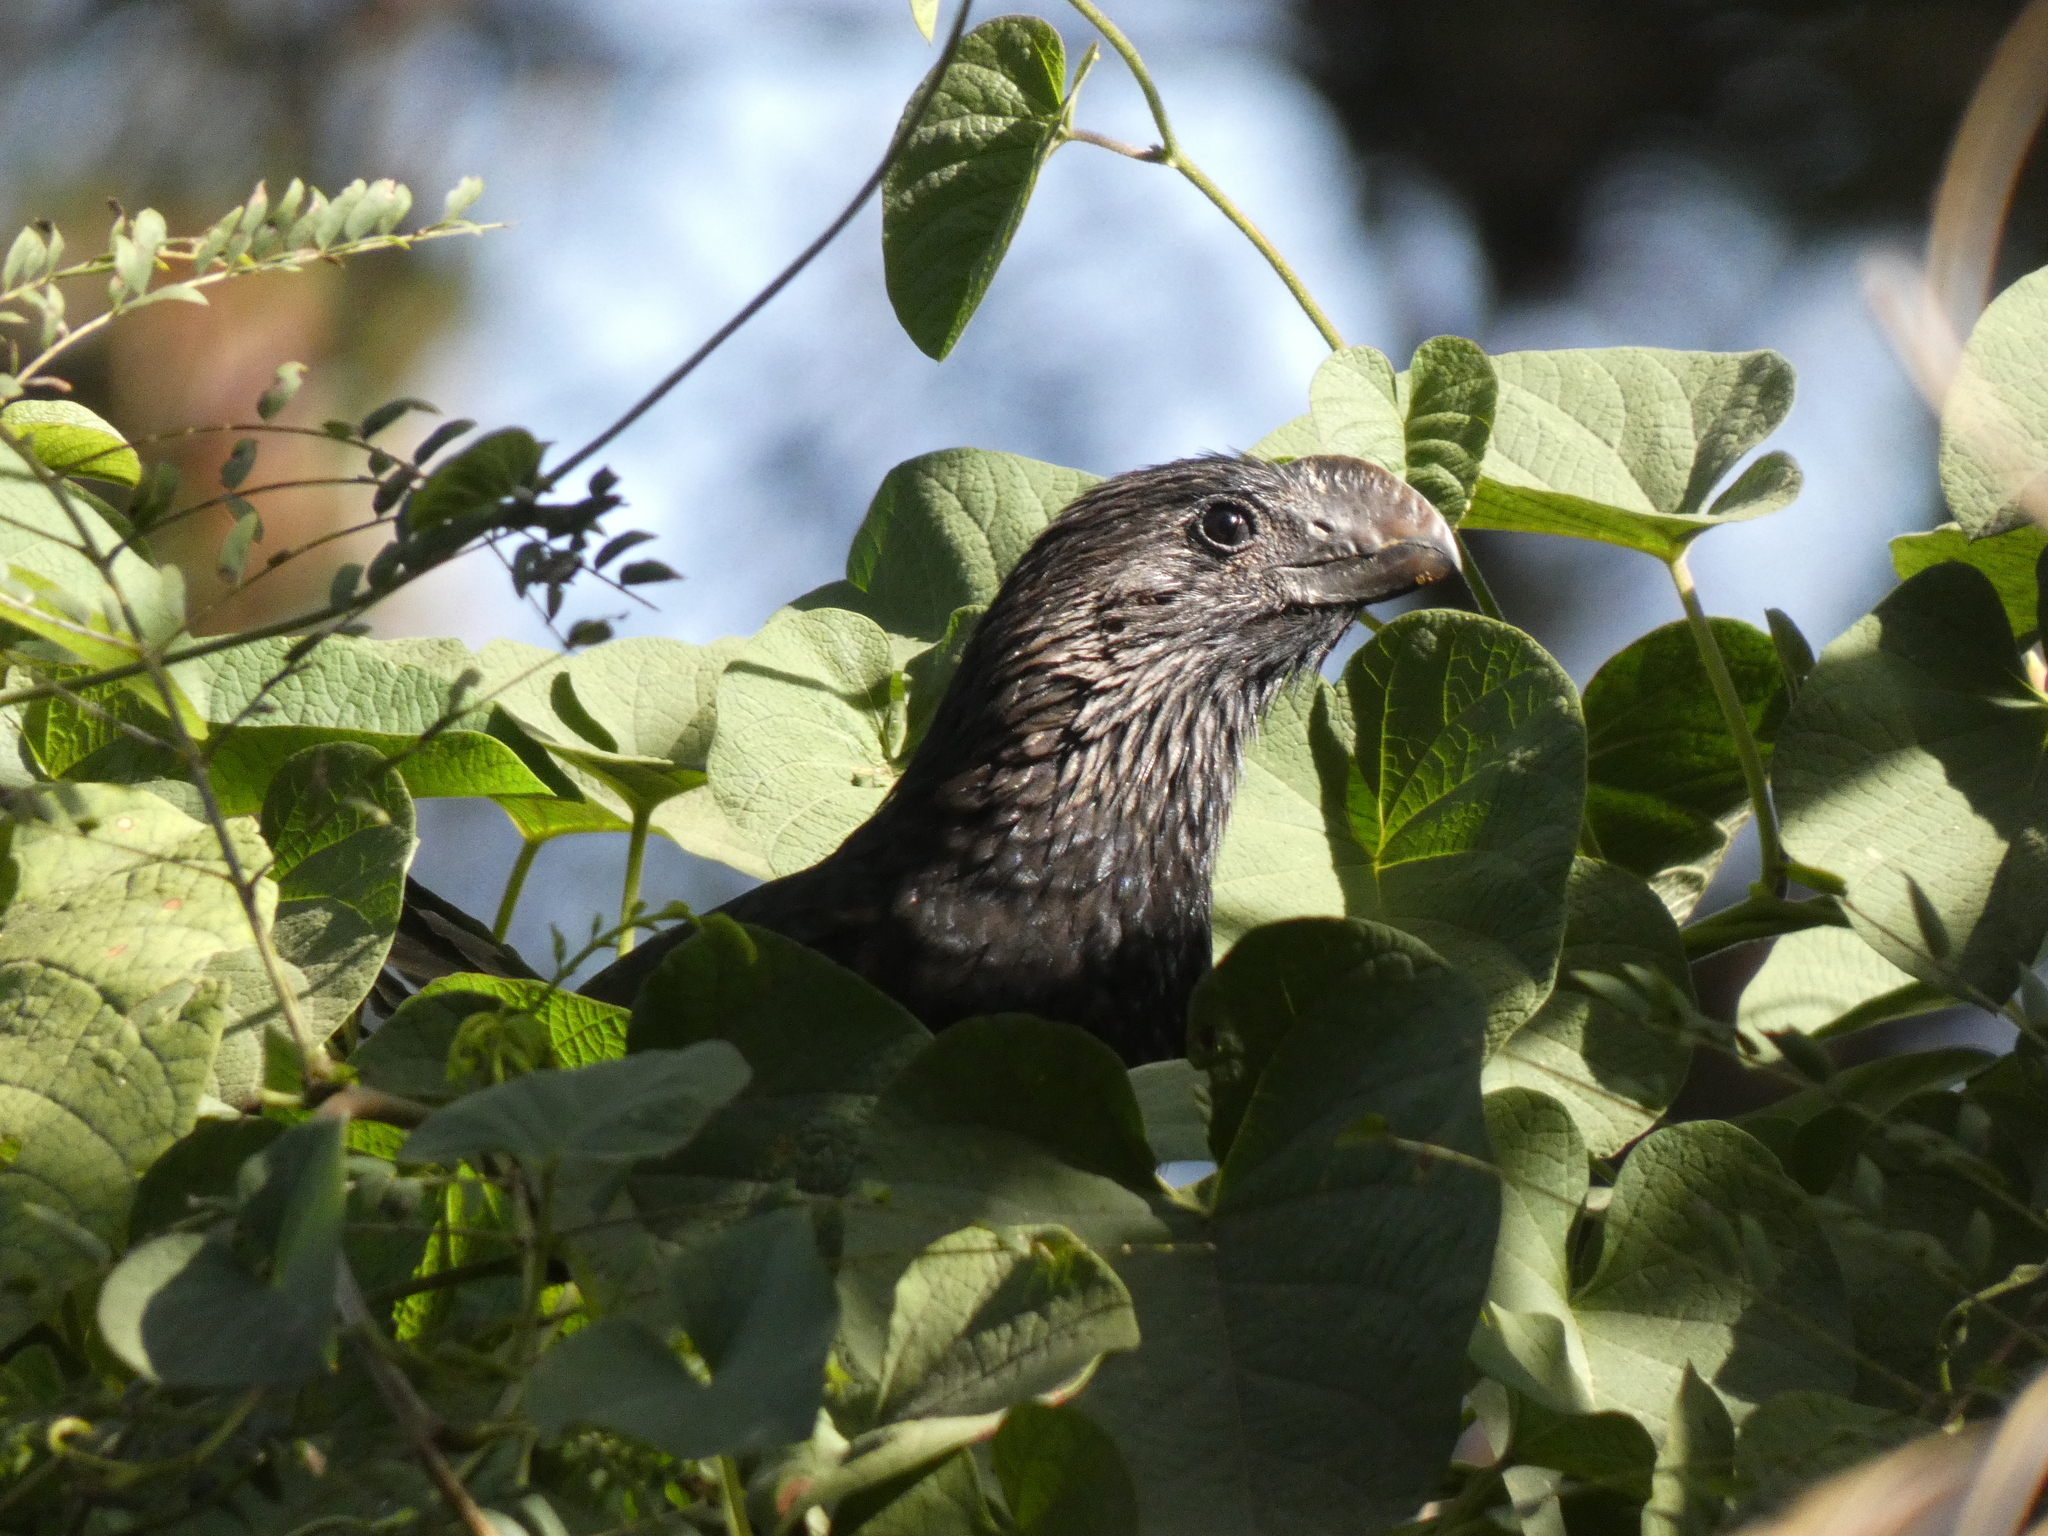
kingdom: Animalia
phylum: Chordata
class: Aves
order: Cuculiformes
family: Cuculidae
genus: Crotophaga
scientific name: Crotophaga ani
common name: Smooth-billed ani
